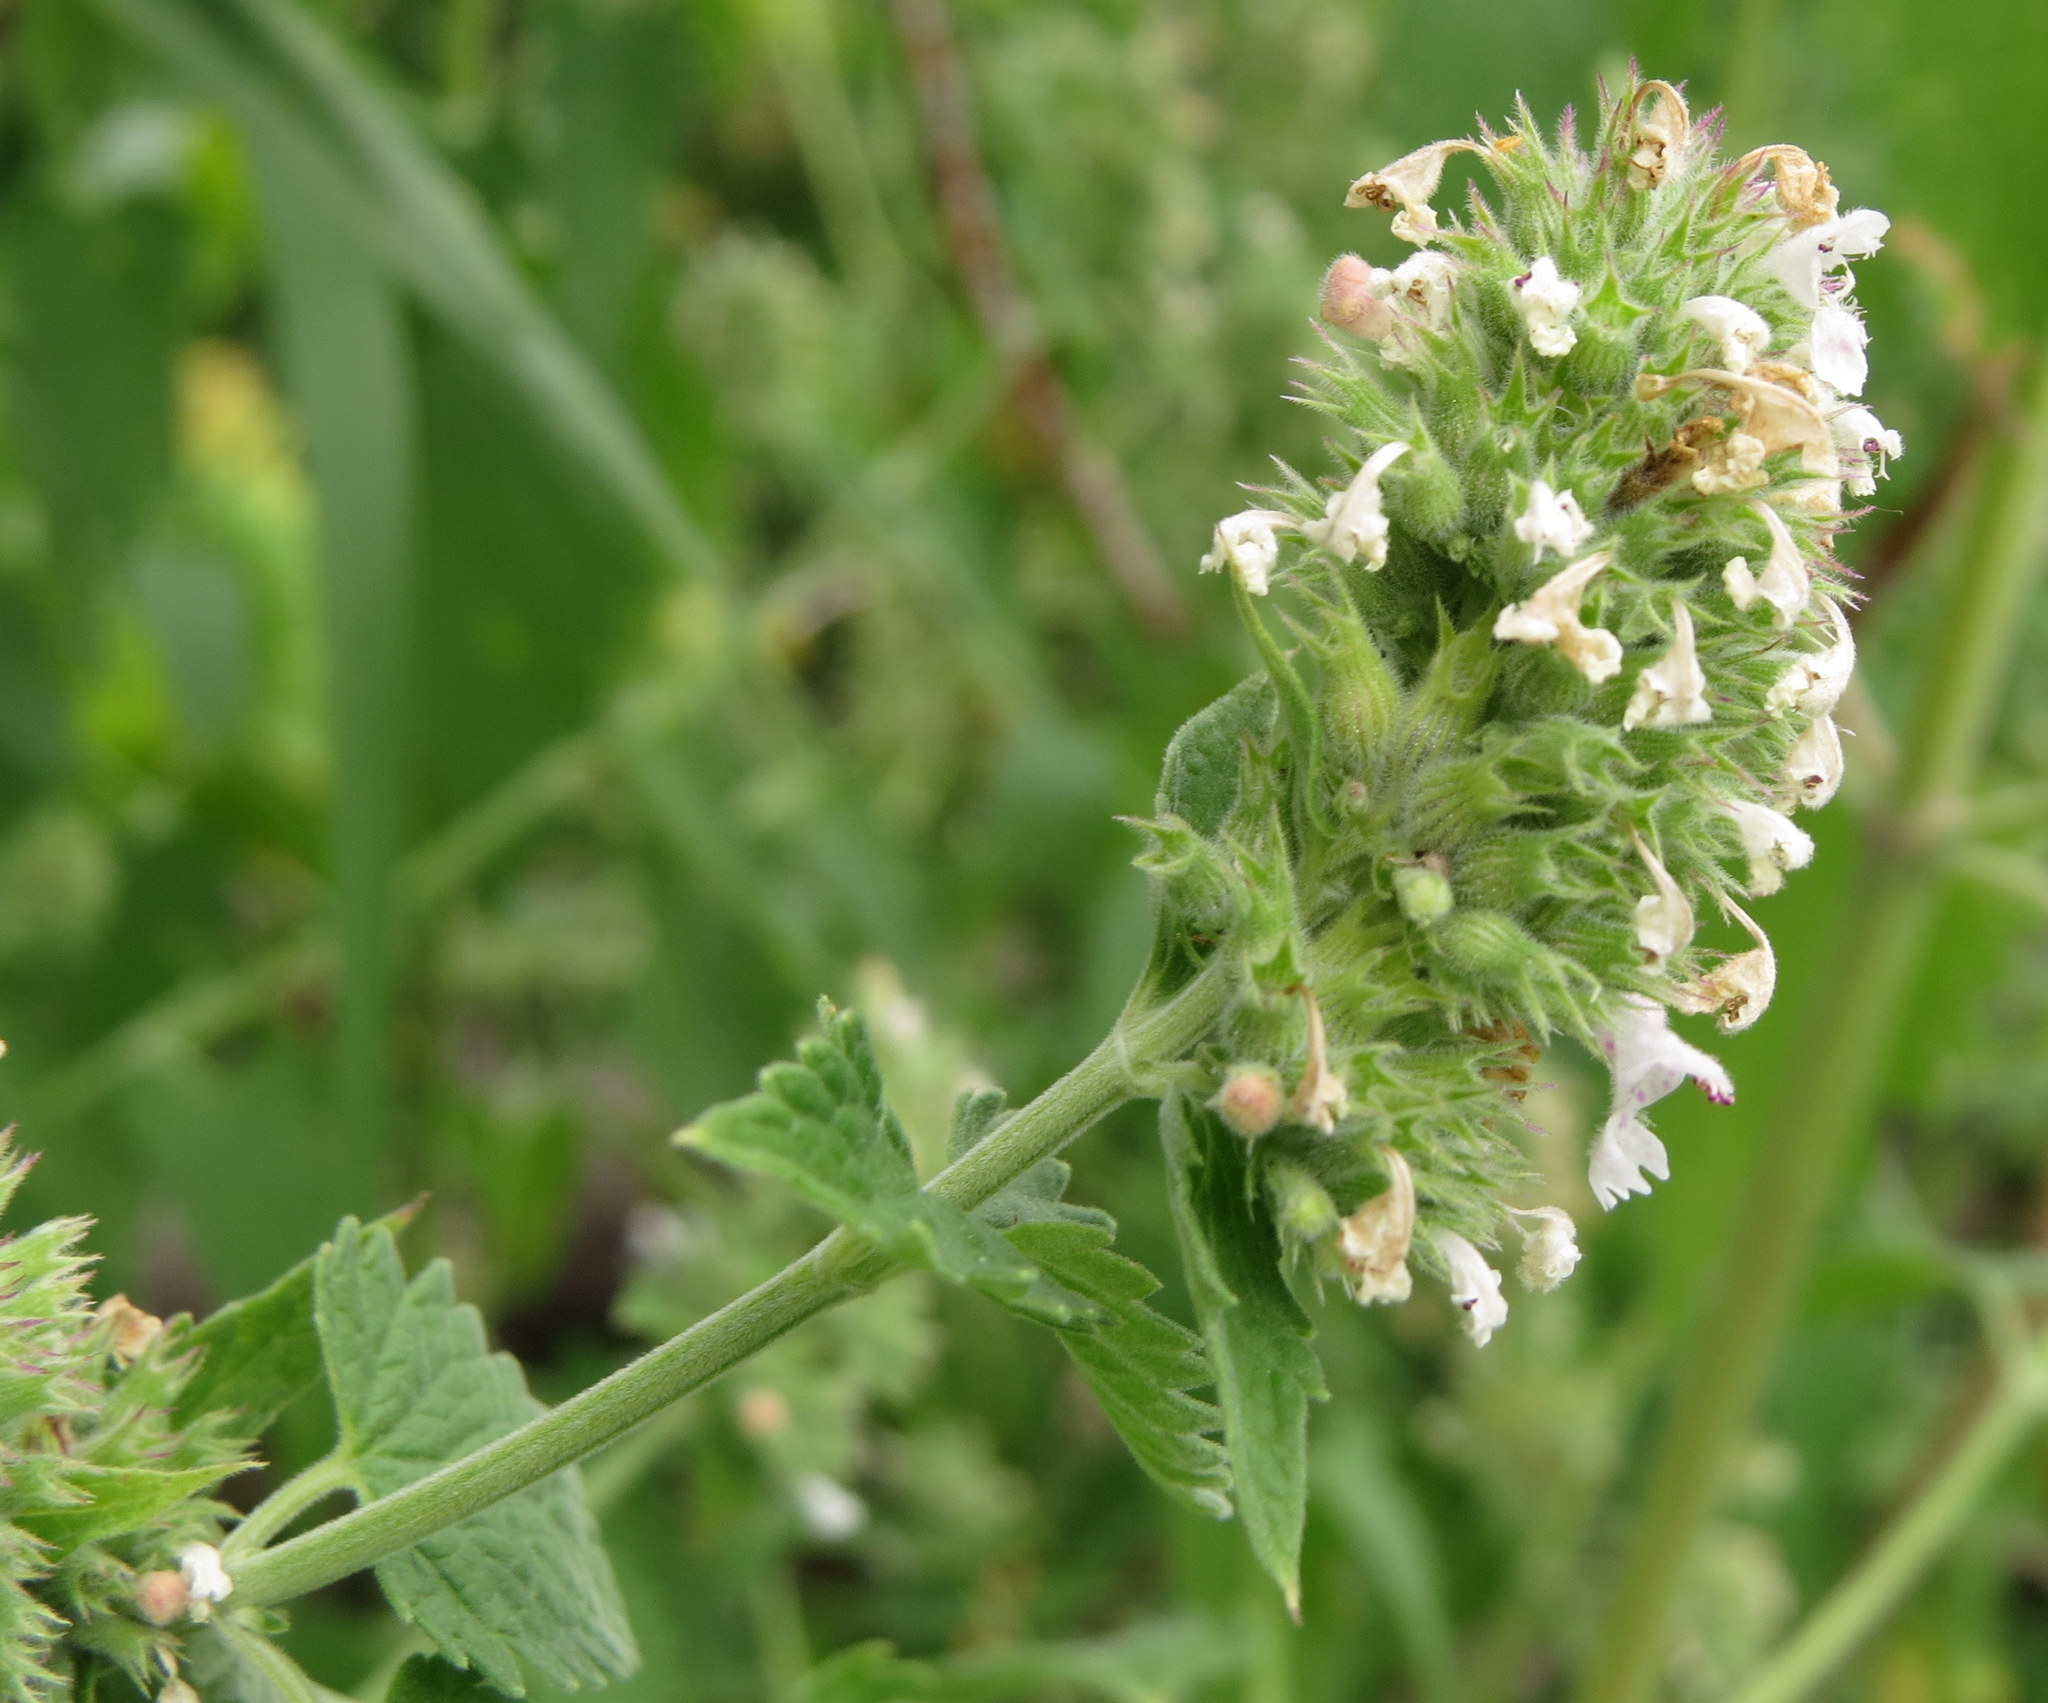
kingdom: Plantae
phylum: Tracheophyta
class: Magnoliopsida
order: Lamiales
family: Lamiaceae
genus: Nepeta
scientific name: Nepeta cataria
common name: Catnip
